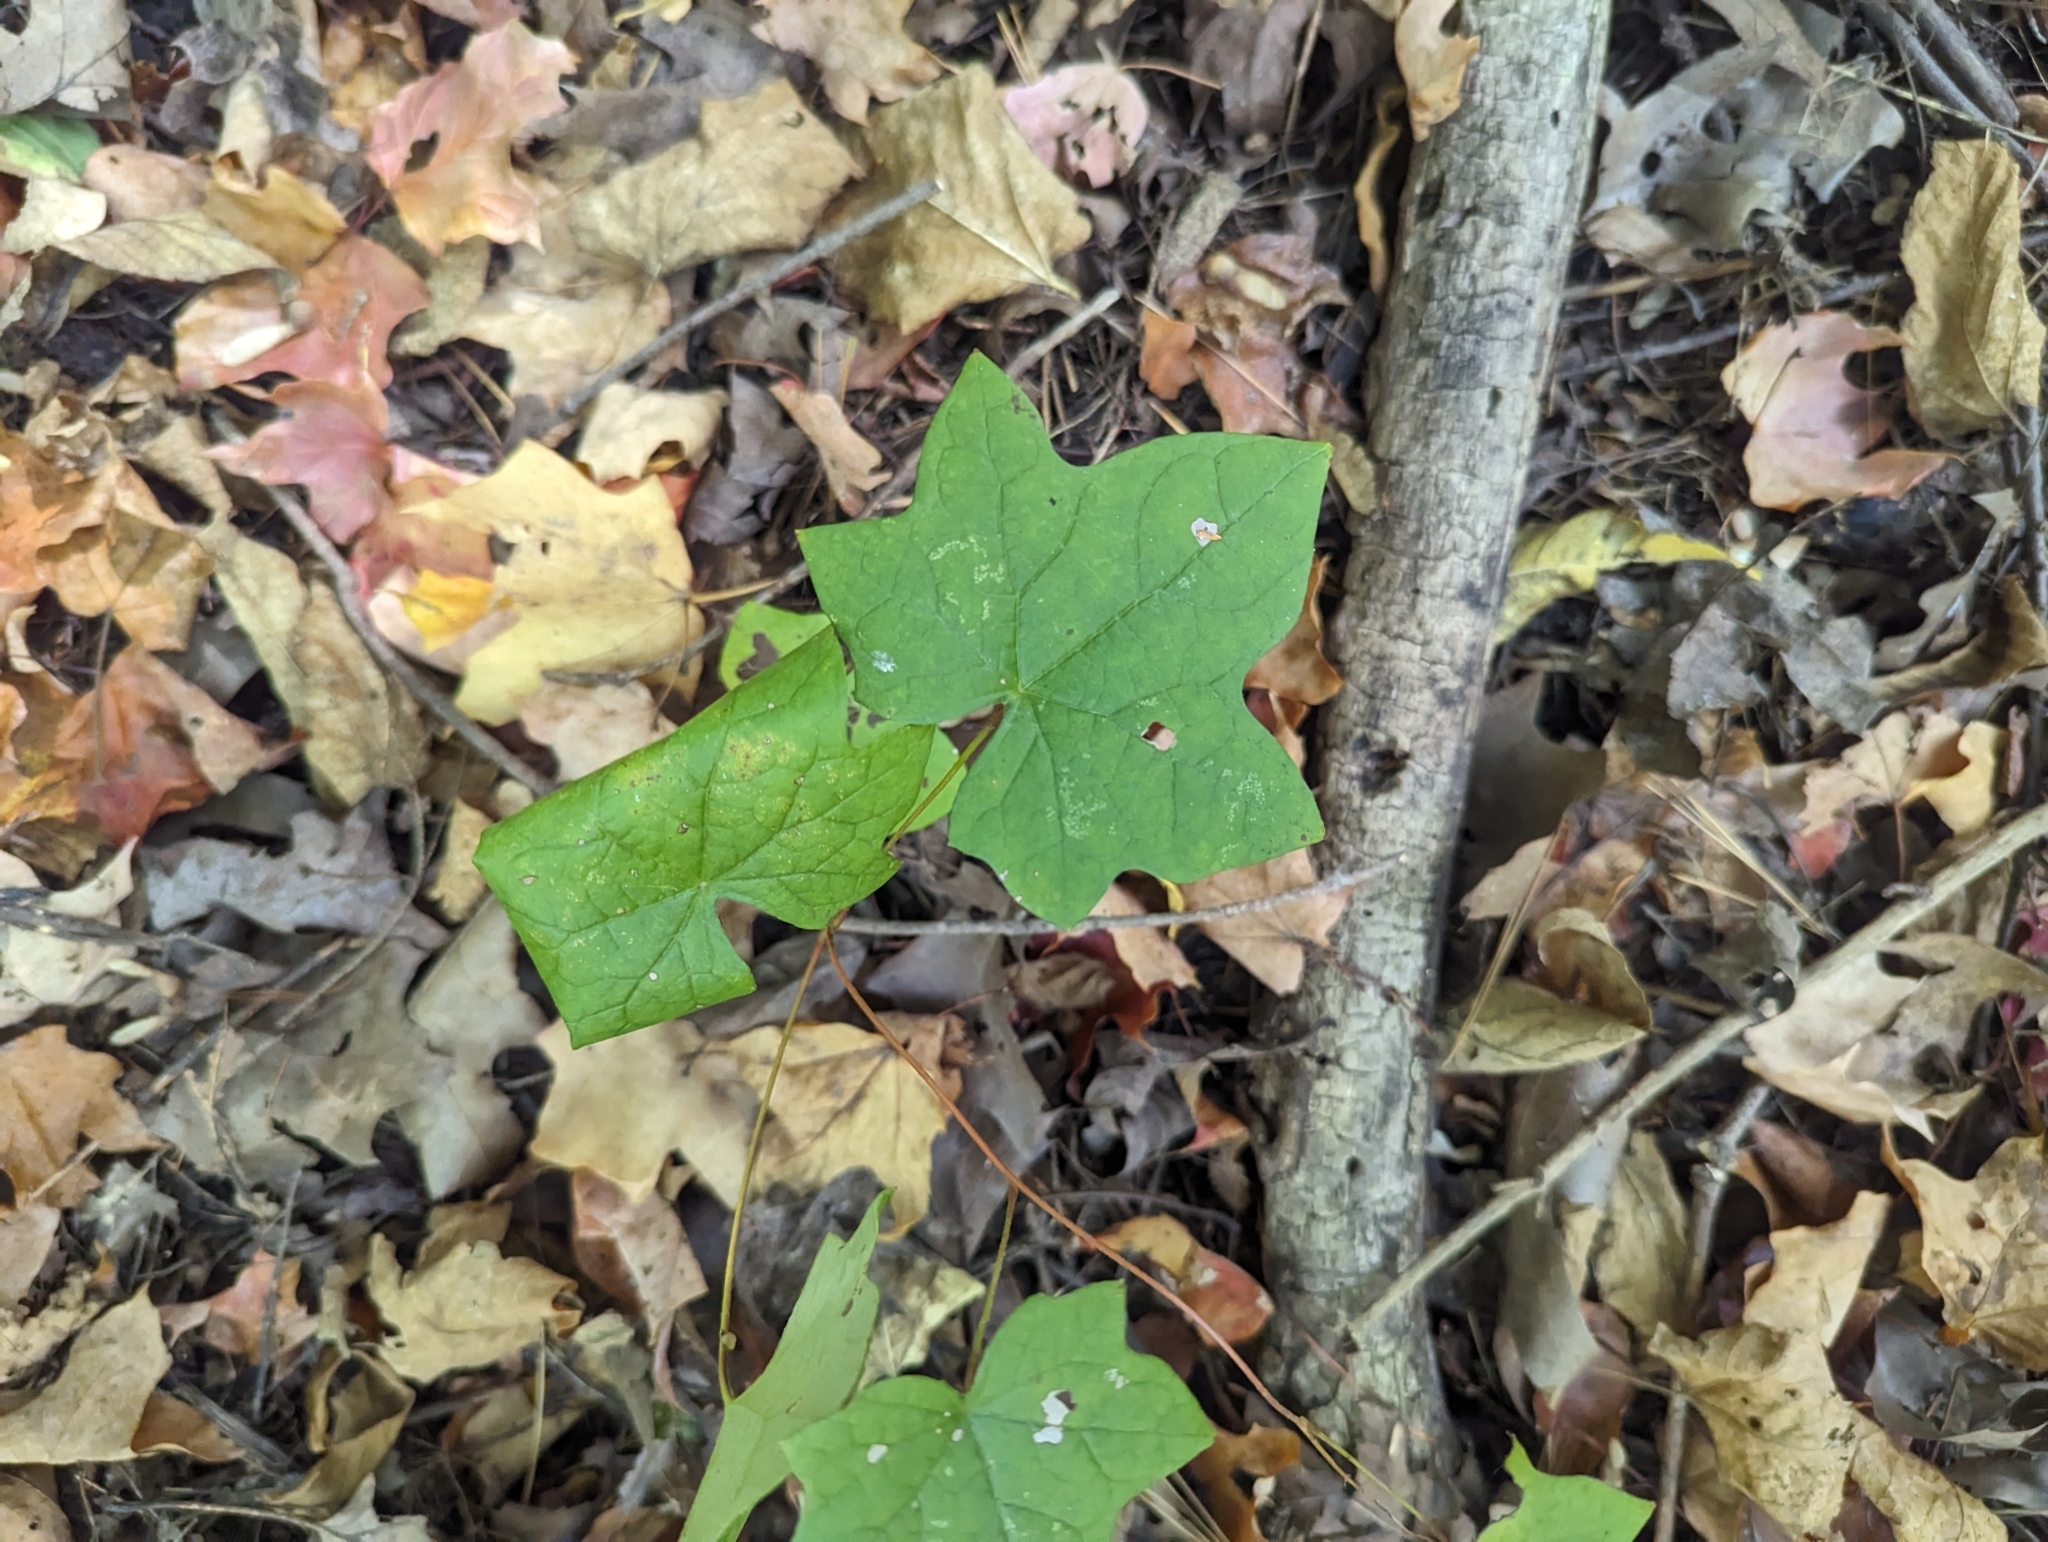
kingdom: Plantae
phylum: Tracheophyta
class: Magnoliopsida
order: Ranunculales
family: Menispermaceae
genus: Menispermum
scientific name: Menispermum canadense
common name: Moonseed
